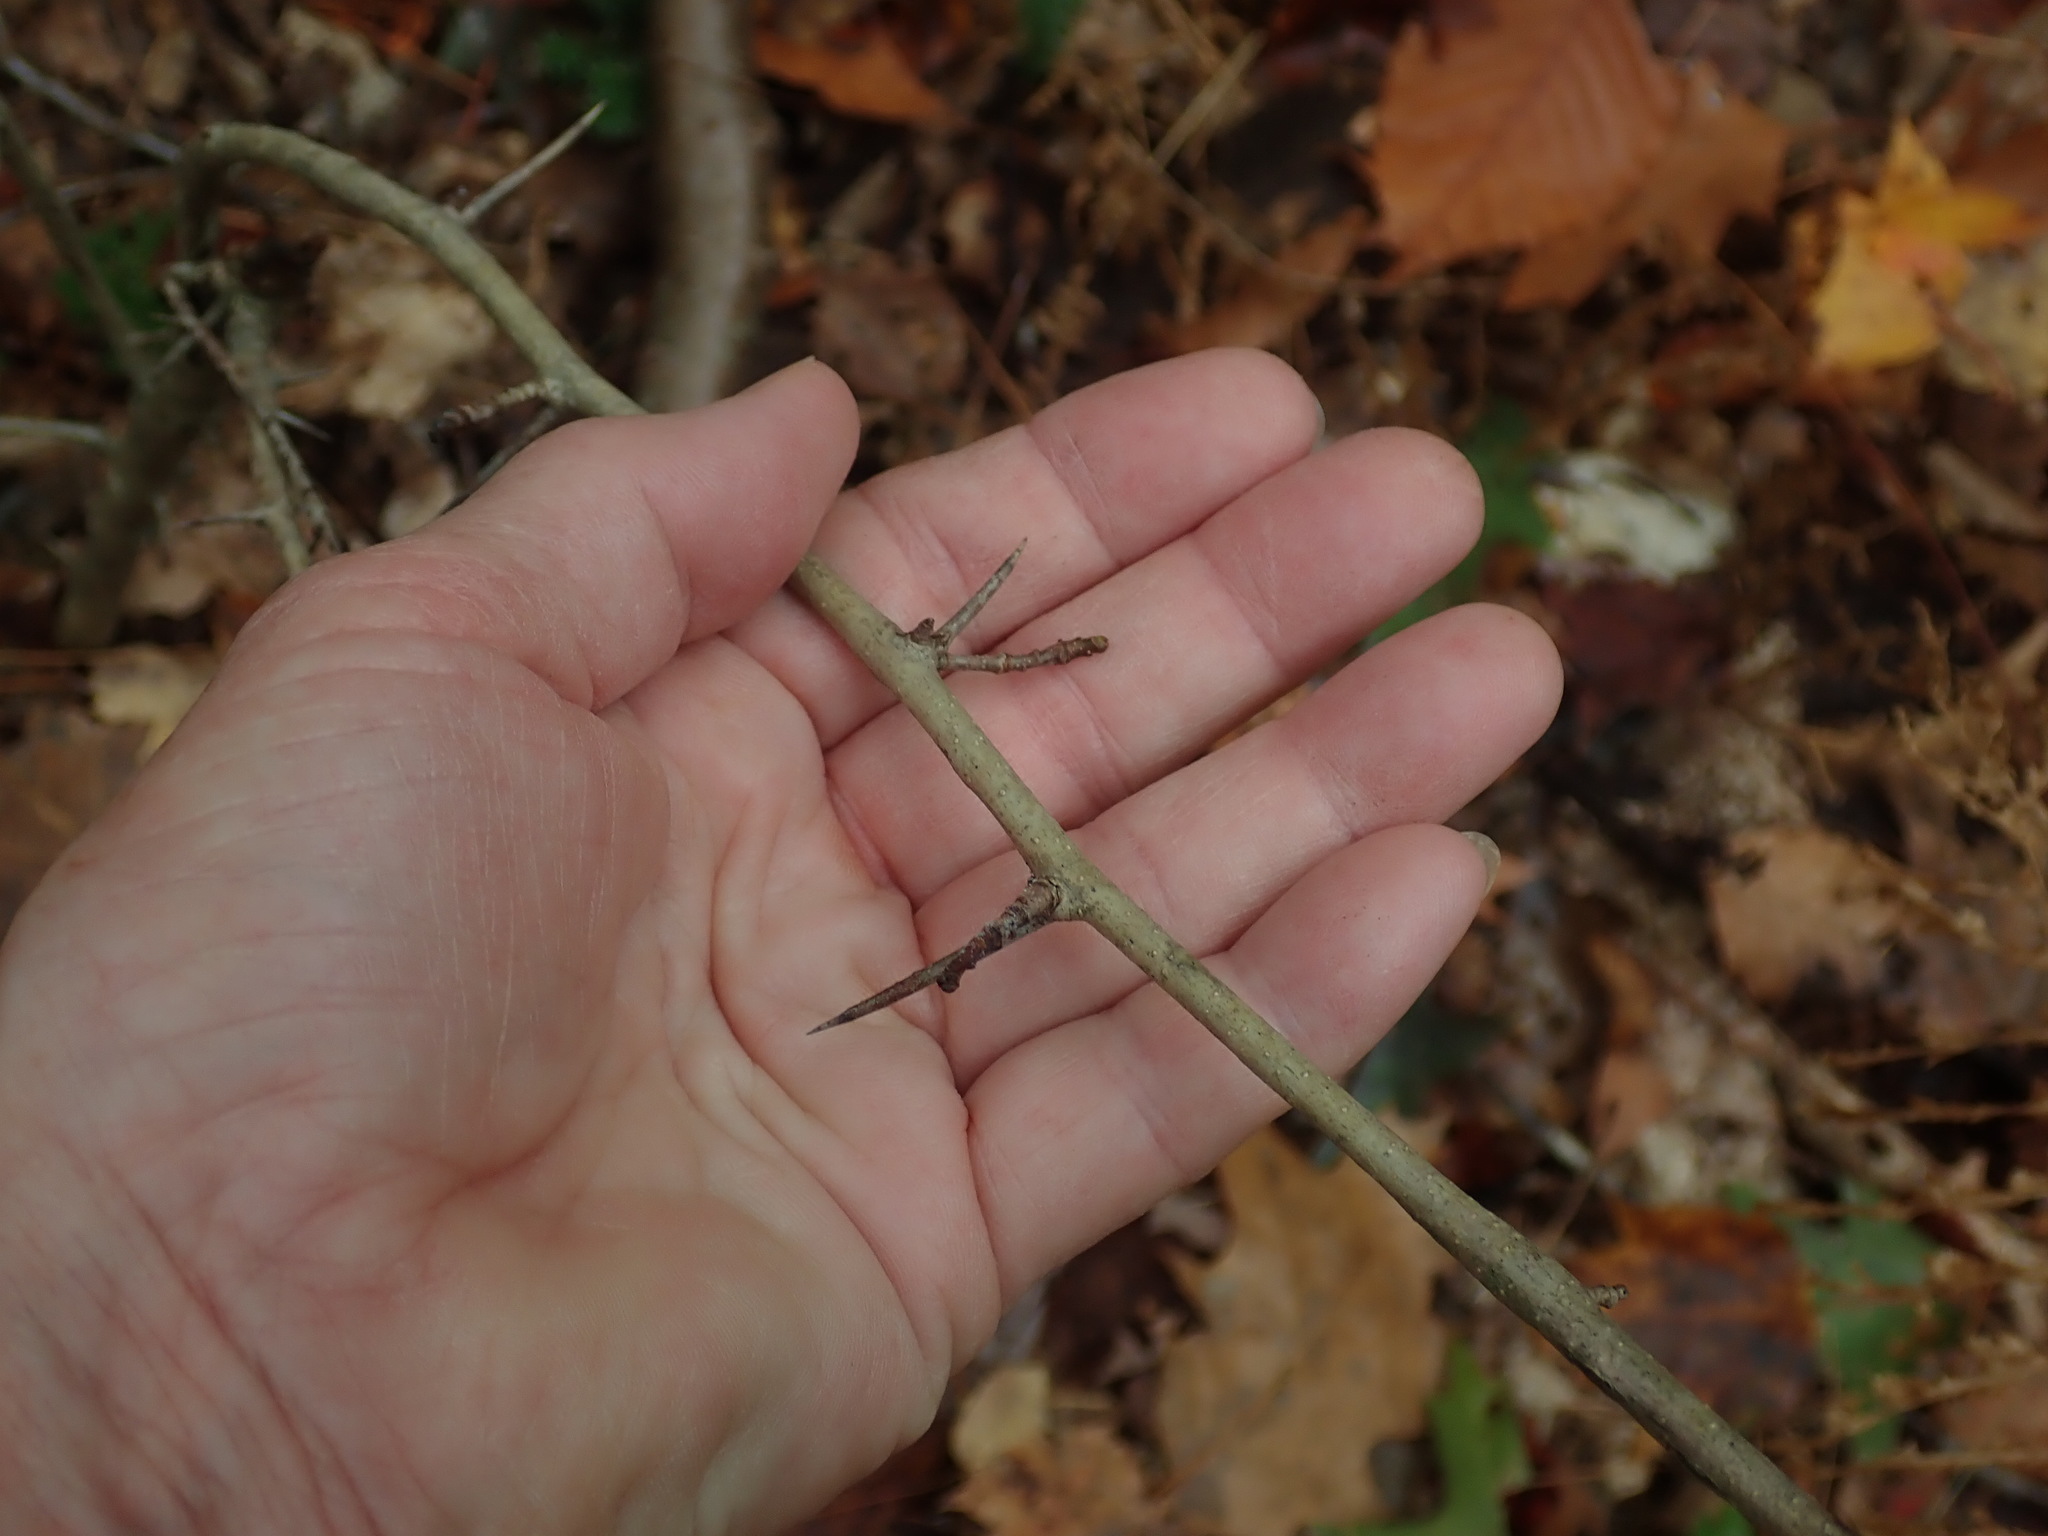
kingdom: Plantae
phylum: Tracheophyta
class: Magnoliopsida
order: Rosales
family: Rosaceae
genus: Crataegus
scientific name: Crataegus
